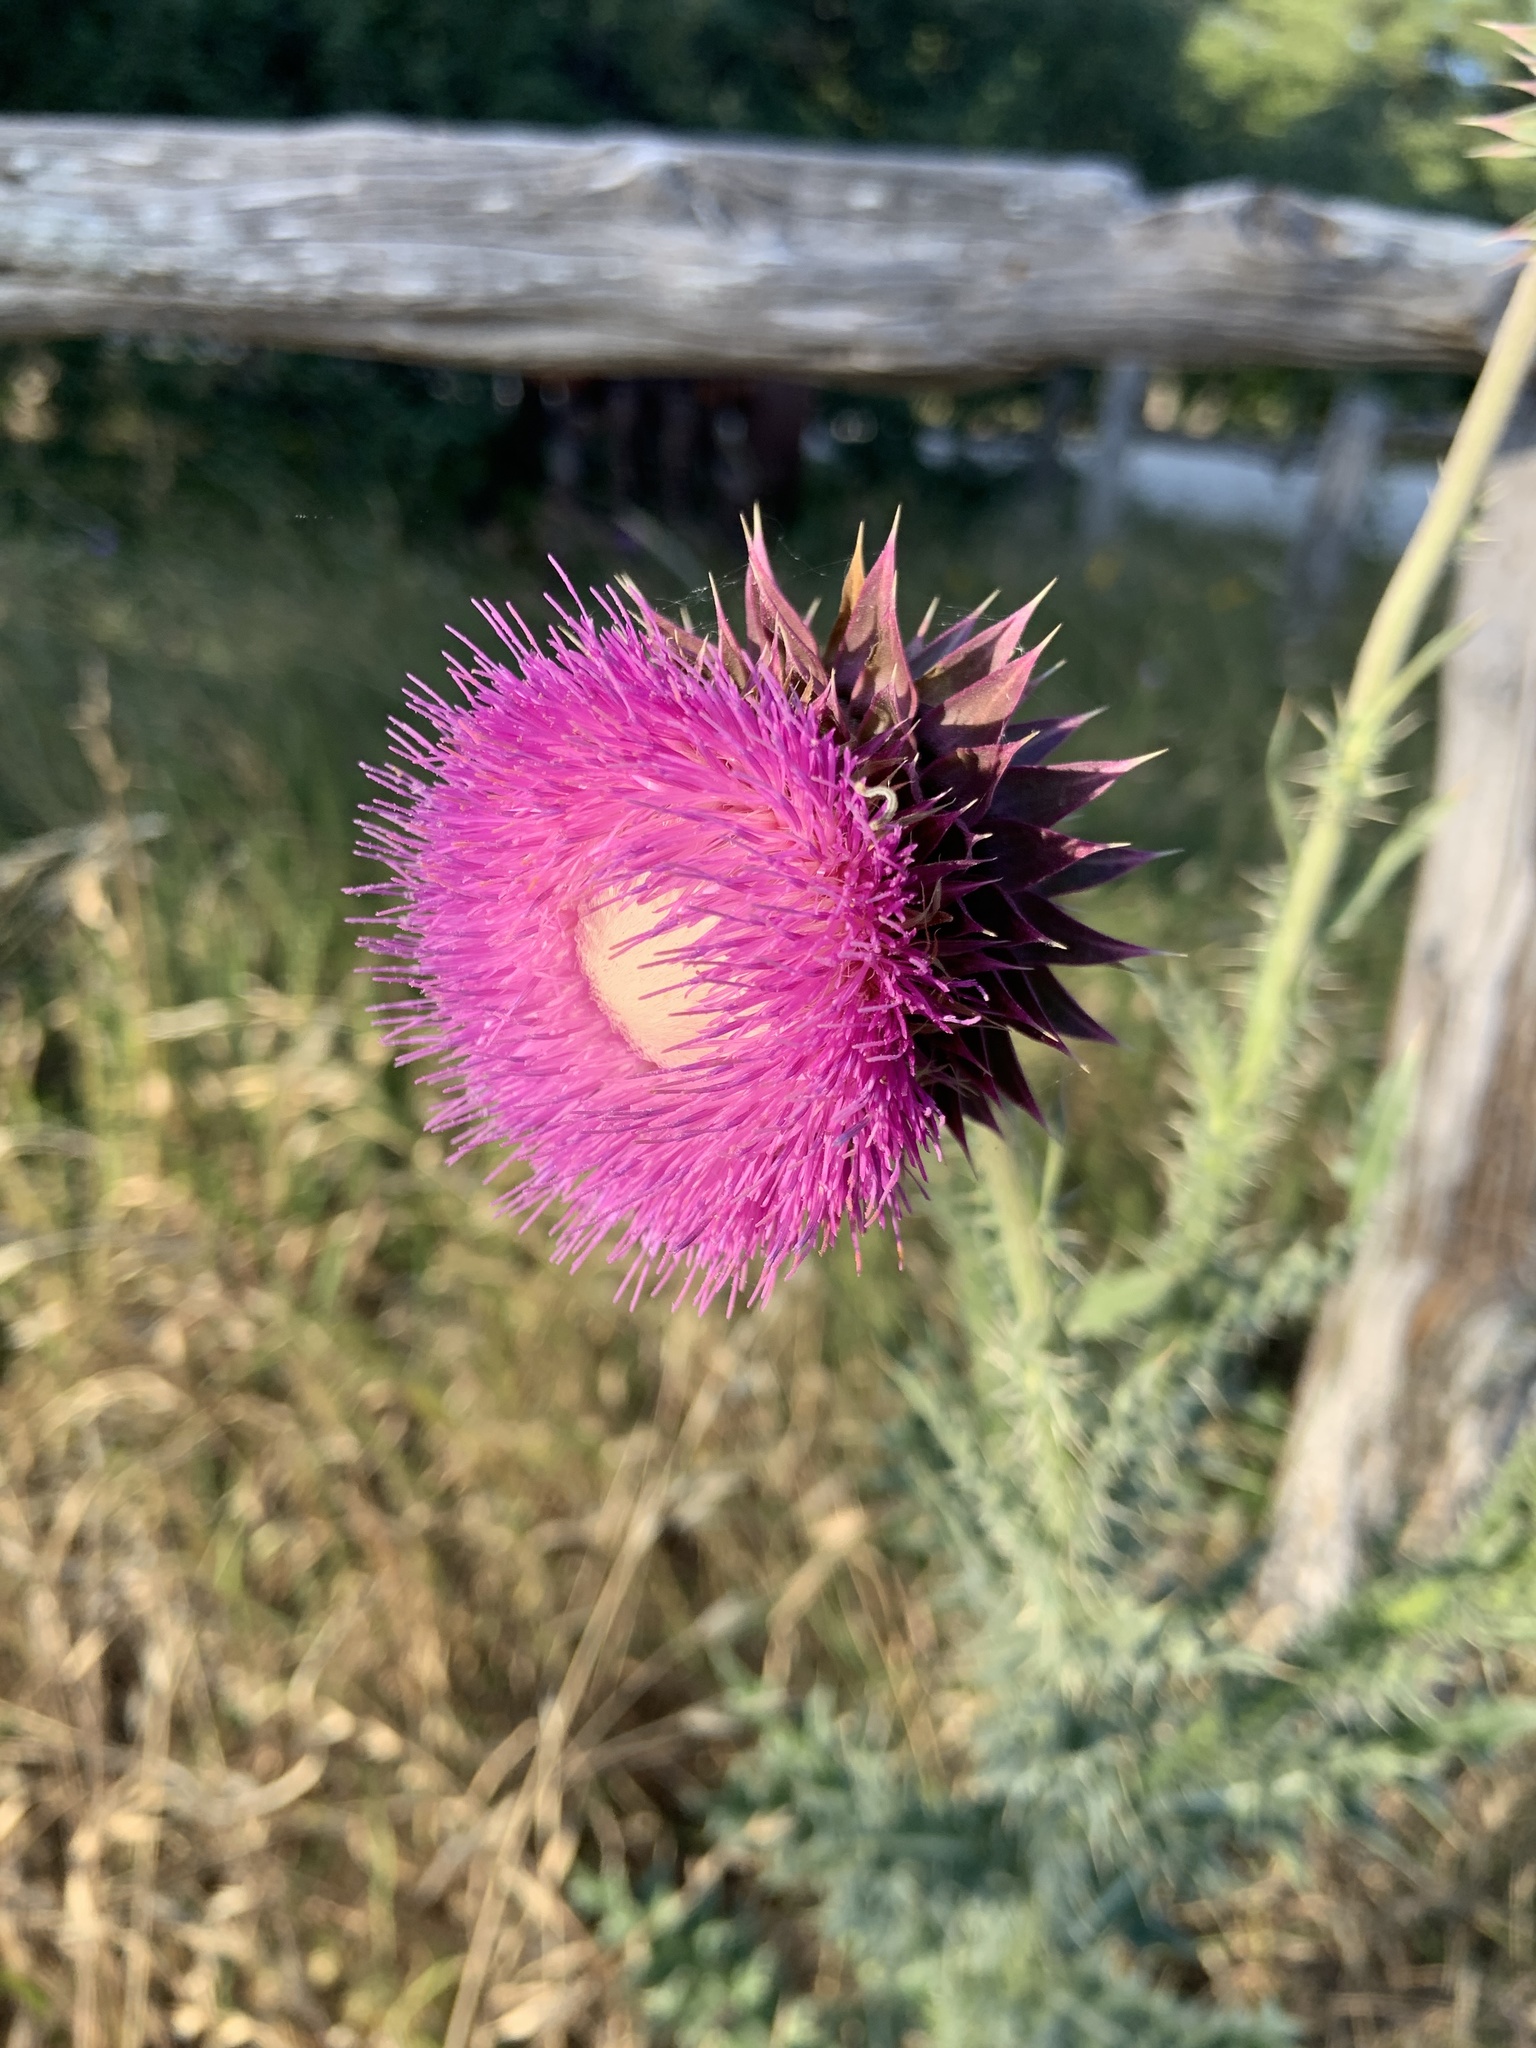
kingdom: Plantae
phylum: Tracheophyta
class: Magnoliopsida
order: Asterales
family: Asteraceae
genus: Carduus
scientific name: Carduus nutans
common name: Musk thistle
